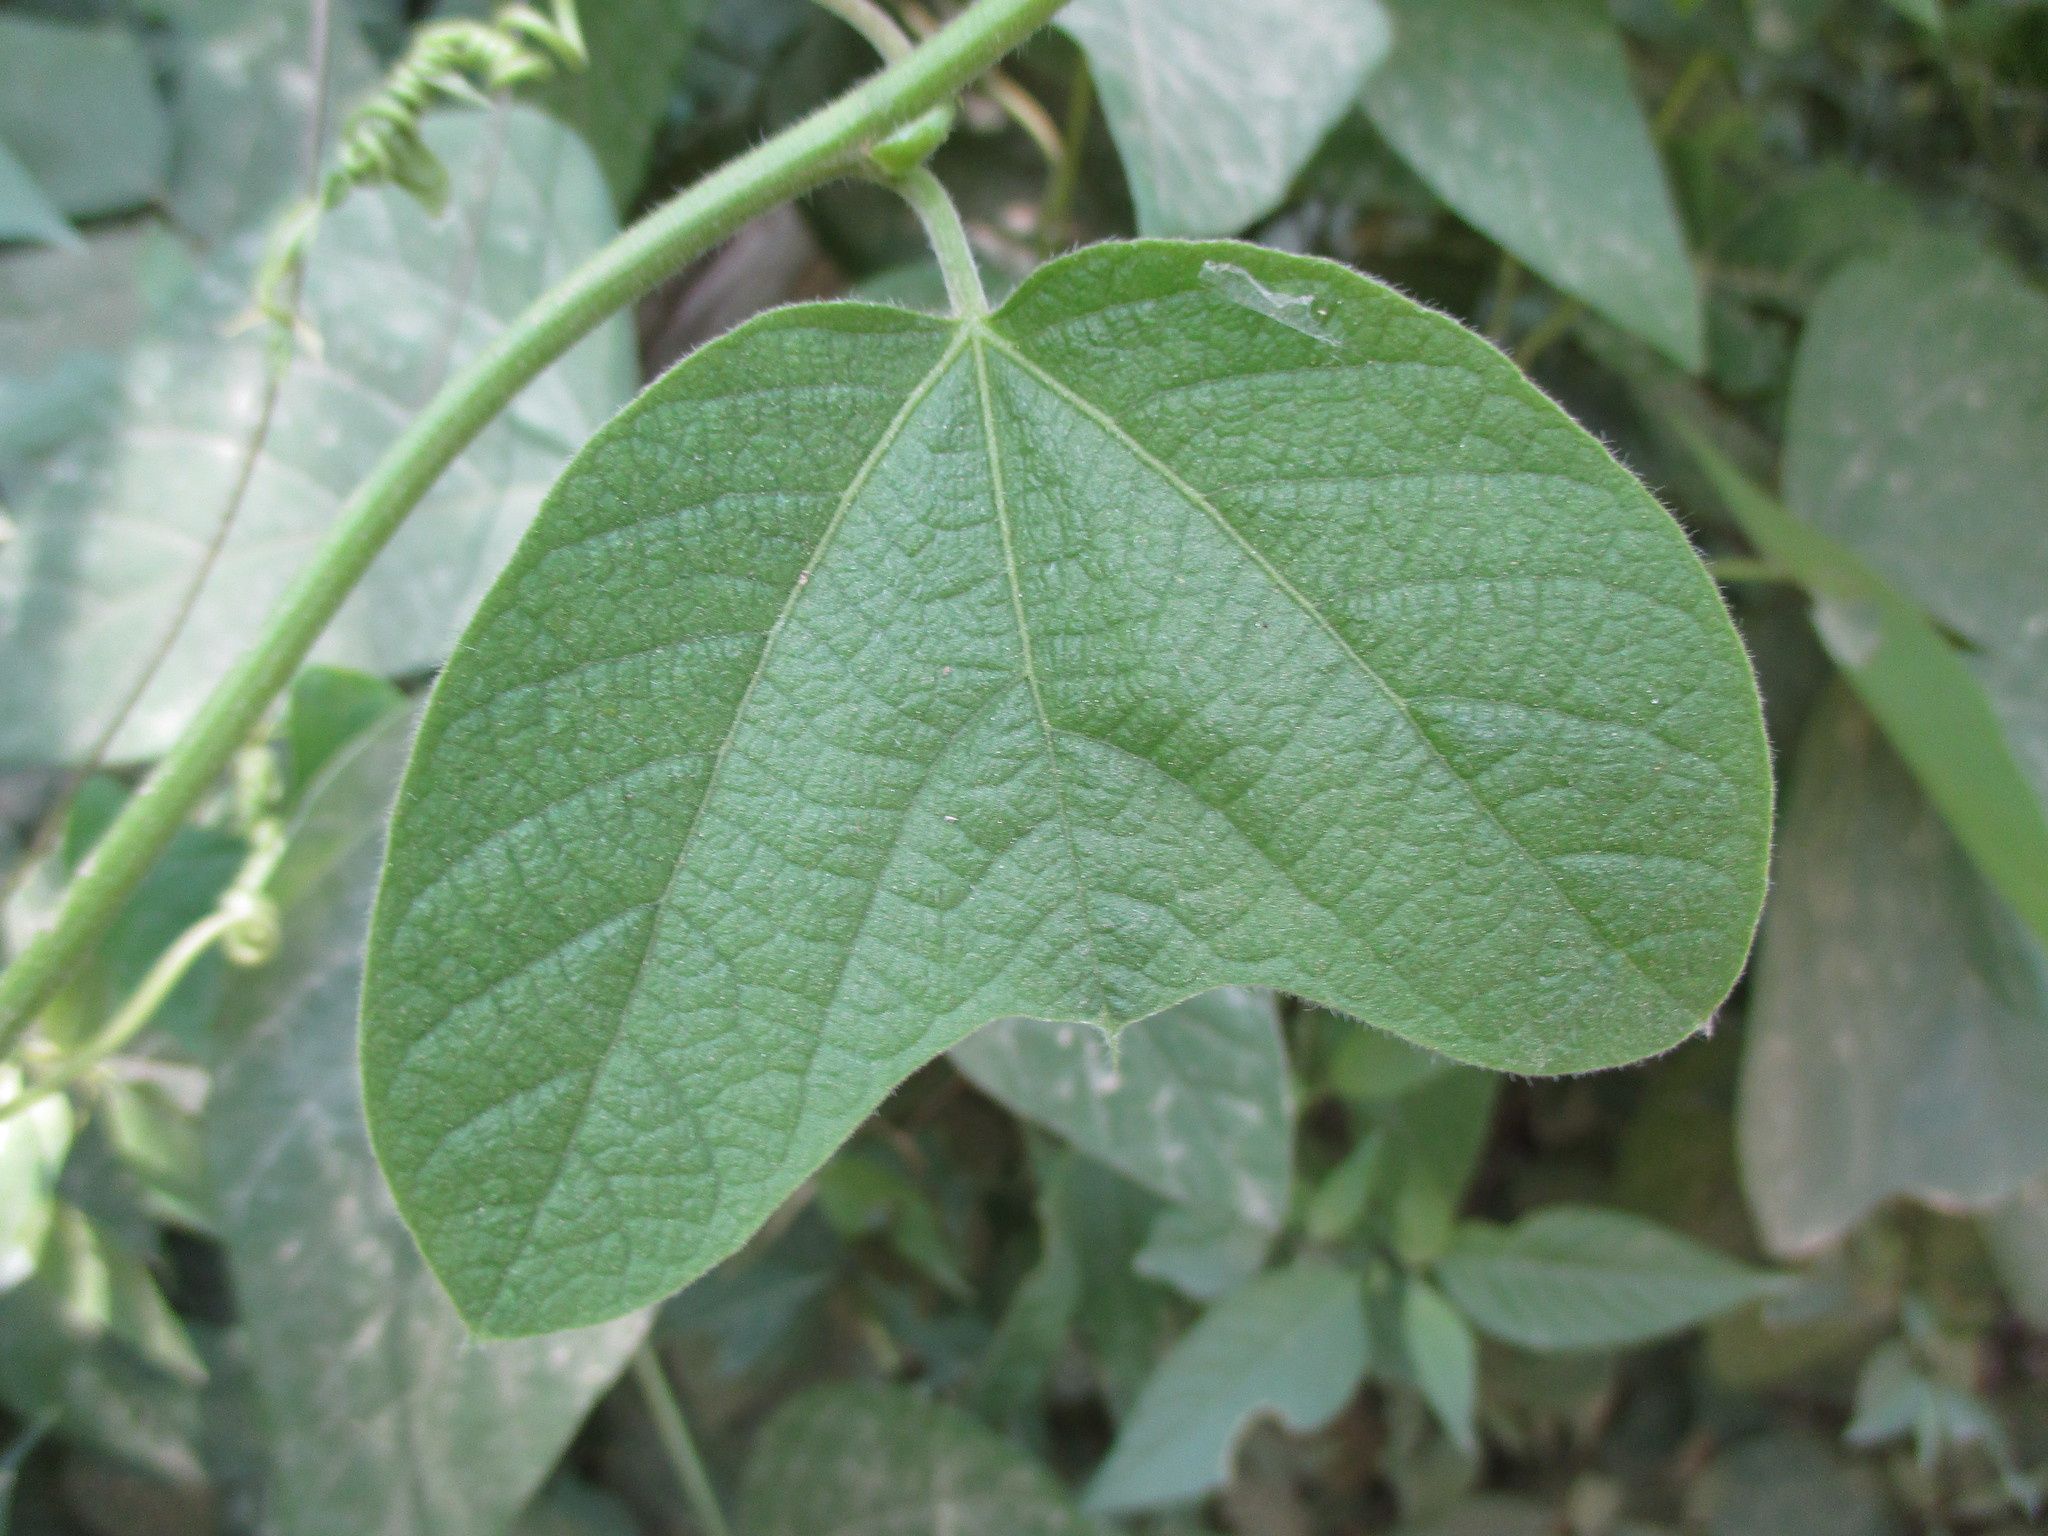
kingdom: Plantae
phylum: Tracheophyta
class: Magnoliopsida
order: Malpighiales
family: Passifloraceae
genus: Passiflora
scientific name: Passiflora porphyretica
